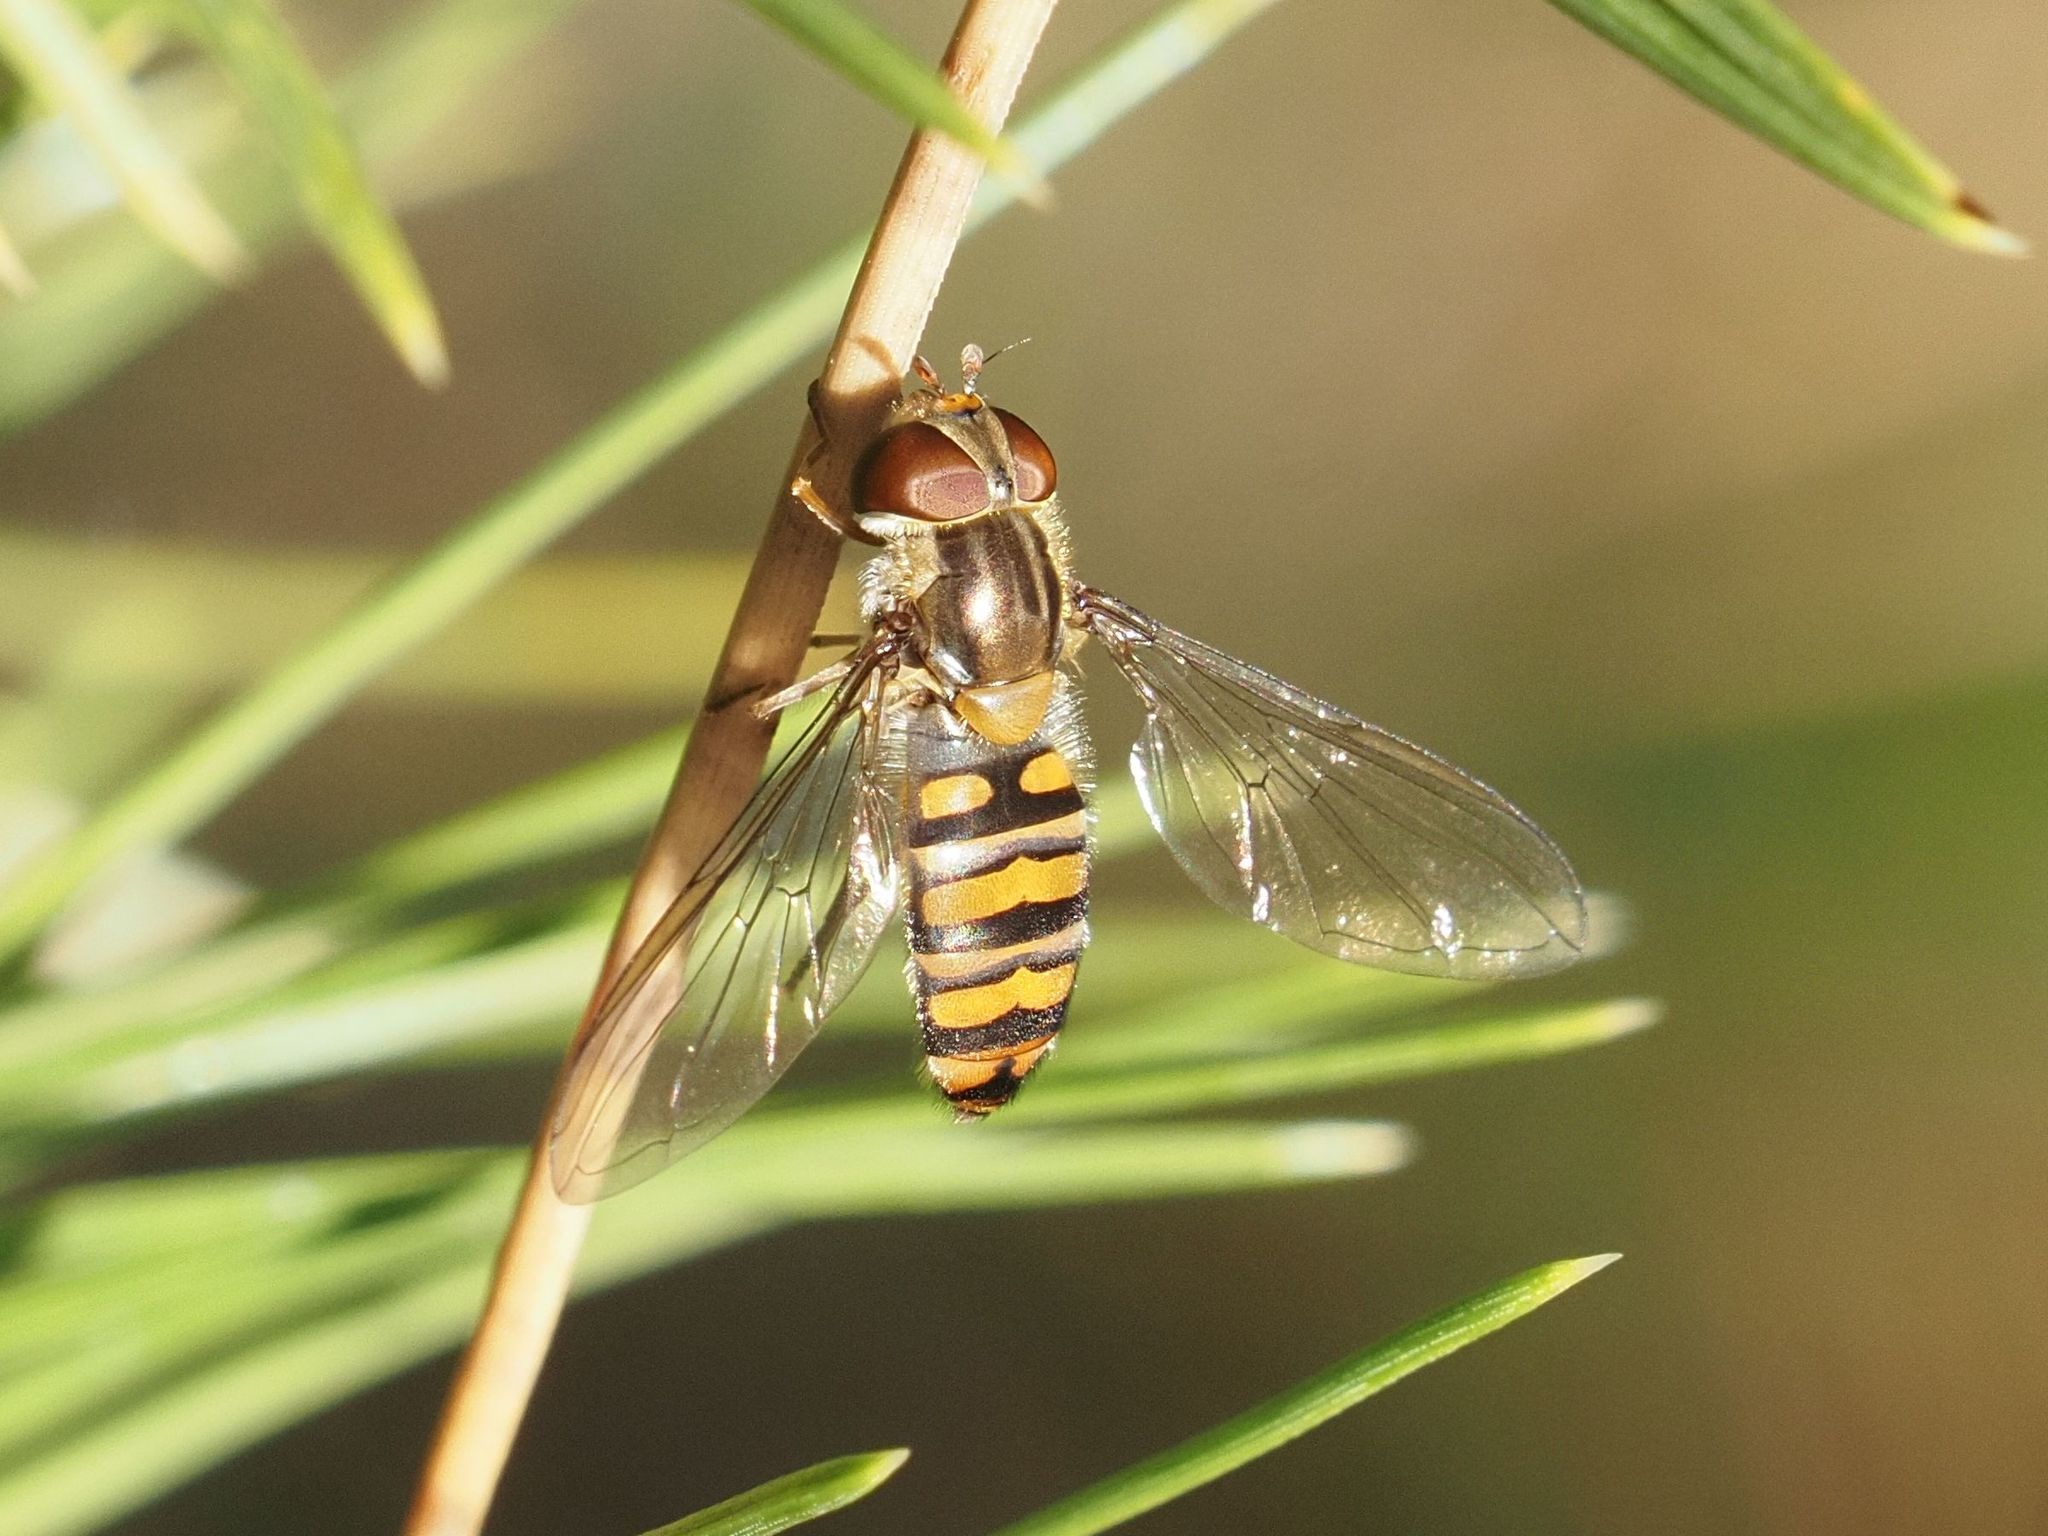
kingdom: Animalia
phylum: Arthropoda
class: Insecta
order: Diptera
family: Syrphidae
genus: Episyrphus
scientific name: Episyrphus balteatus
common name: Marmalade hoverfly
